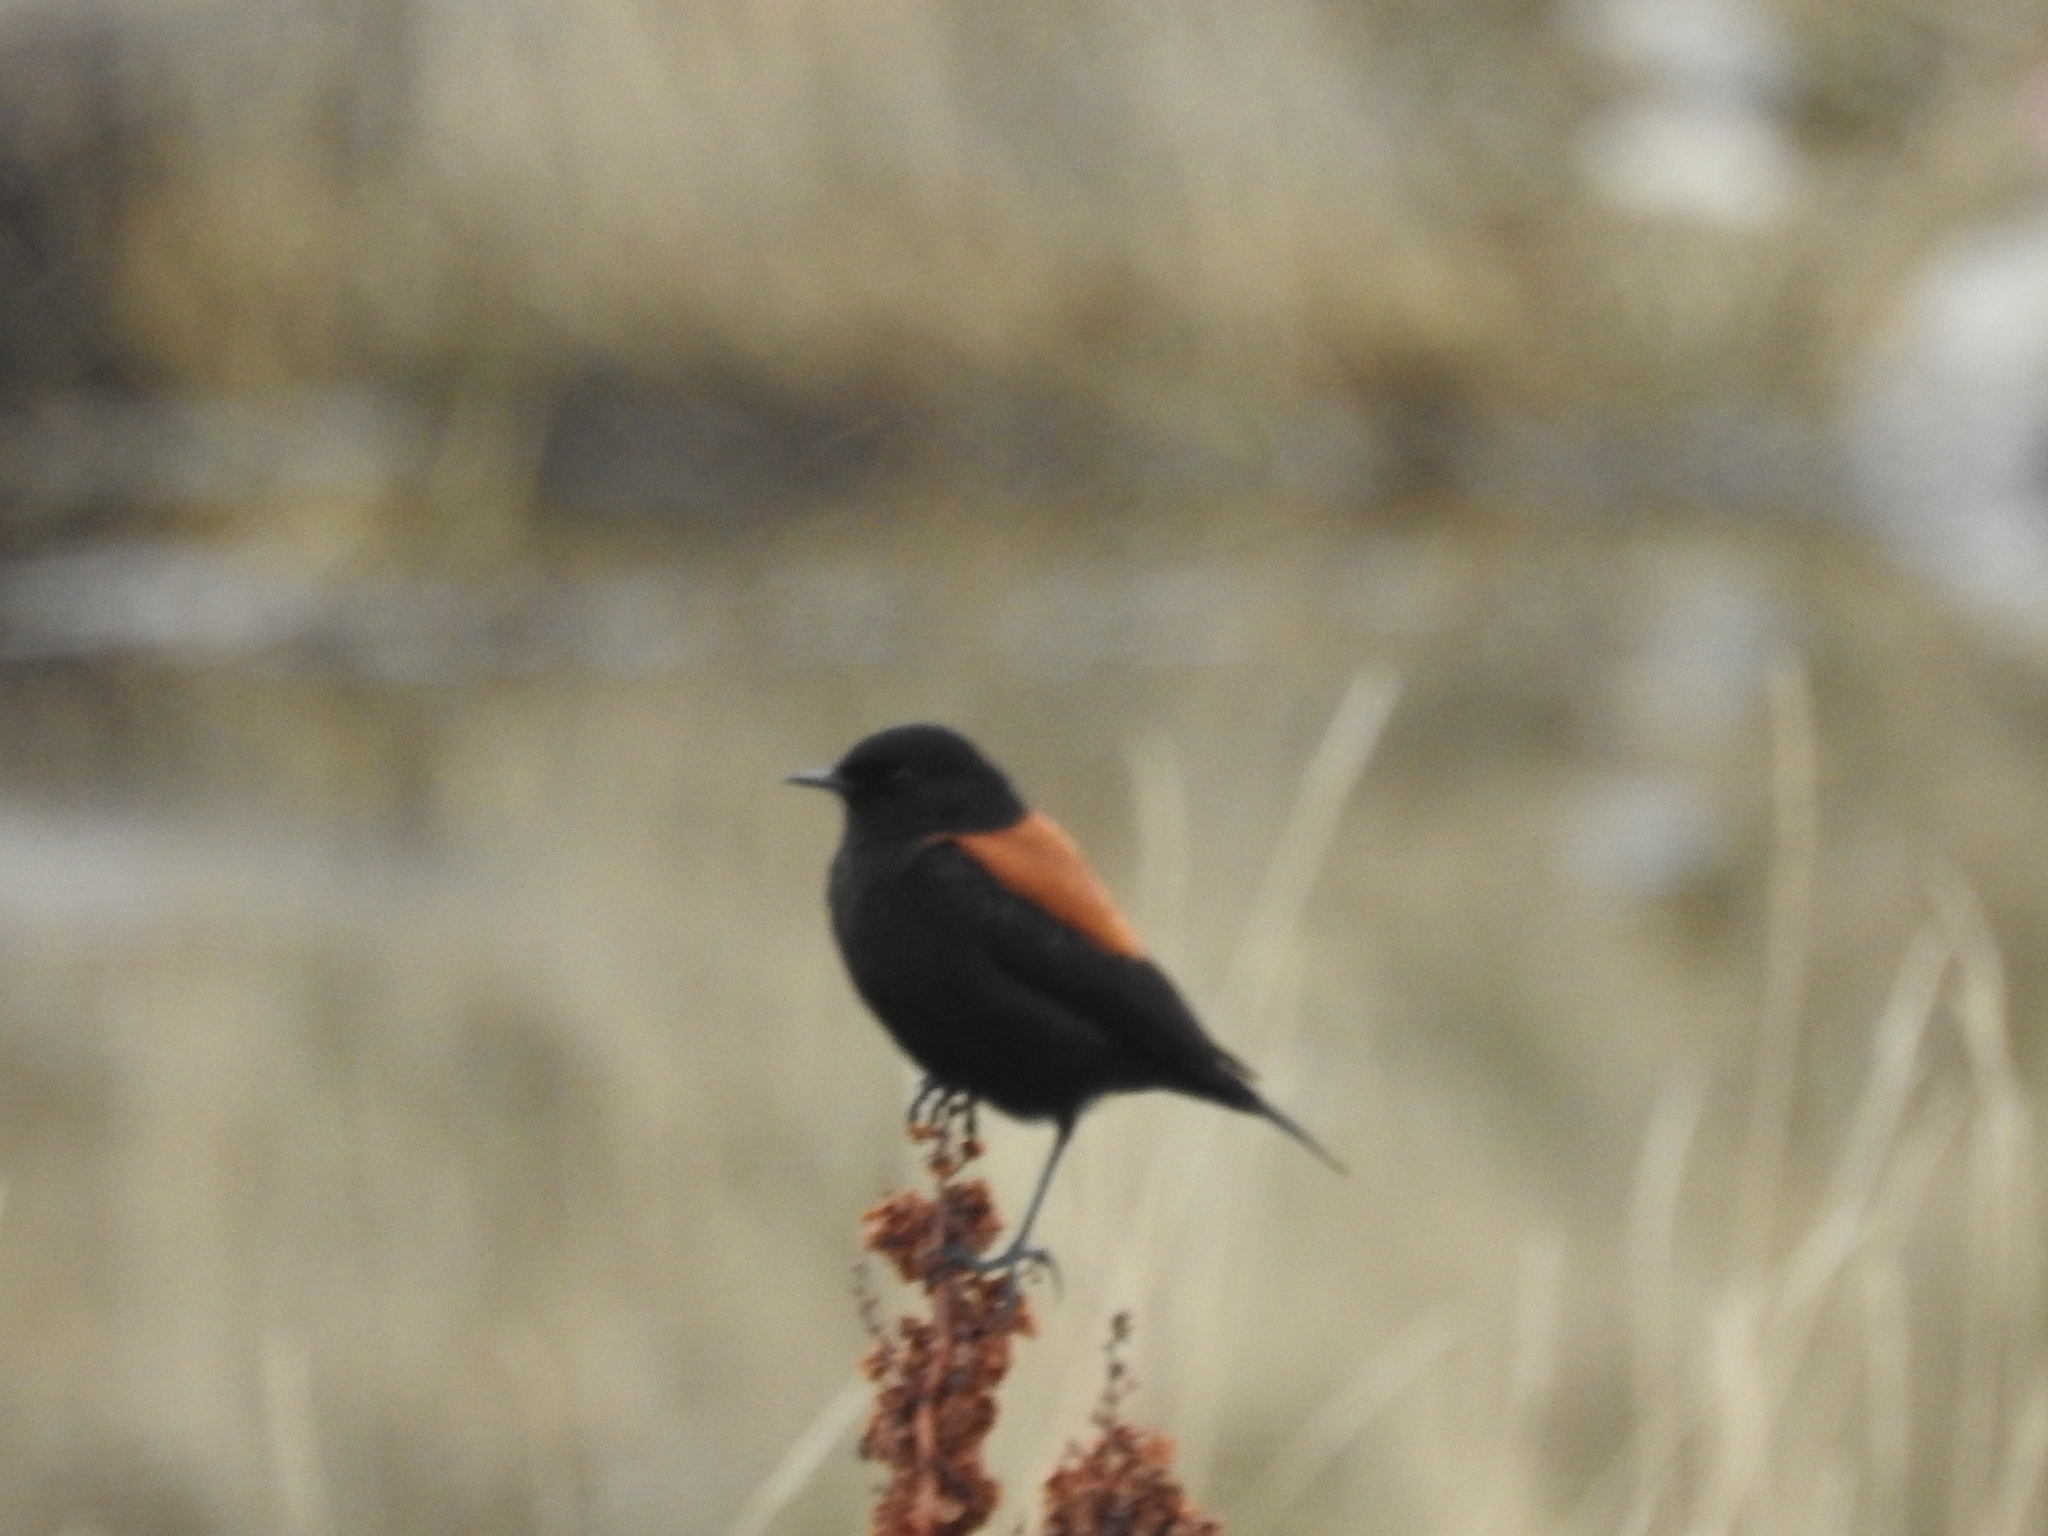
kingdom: Animalia
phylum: Chordata
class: Aves
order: Passeriformes
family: Tyrannidae
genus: Lessonia
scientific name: Lessonia rufa
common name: Austral negrito
